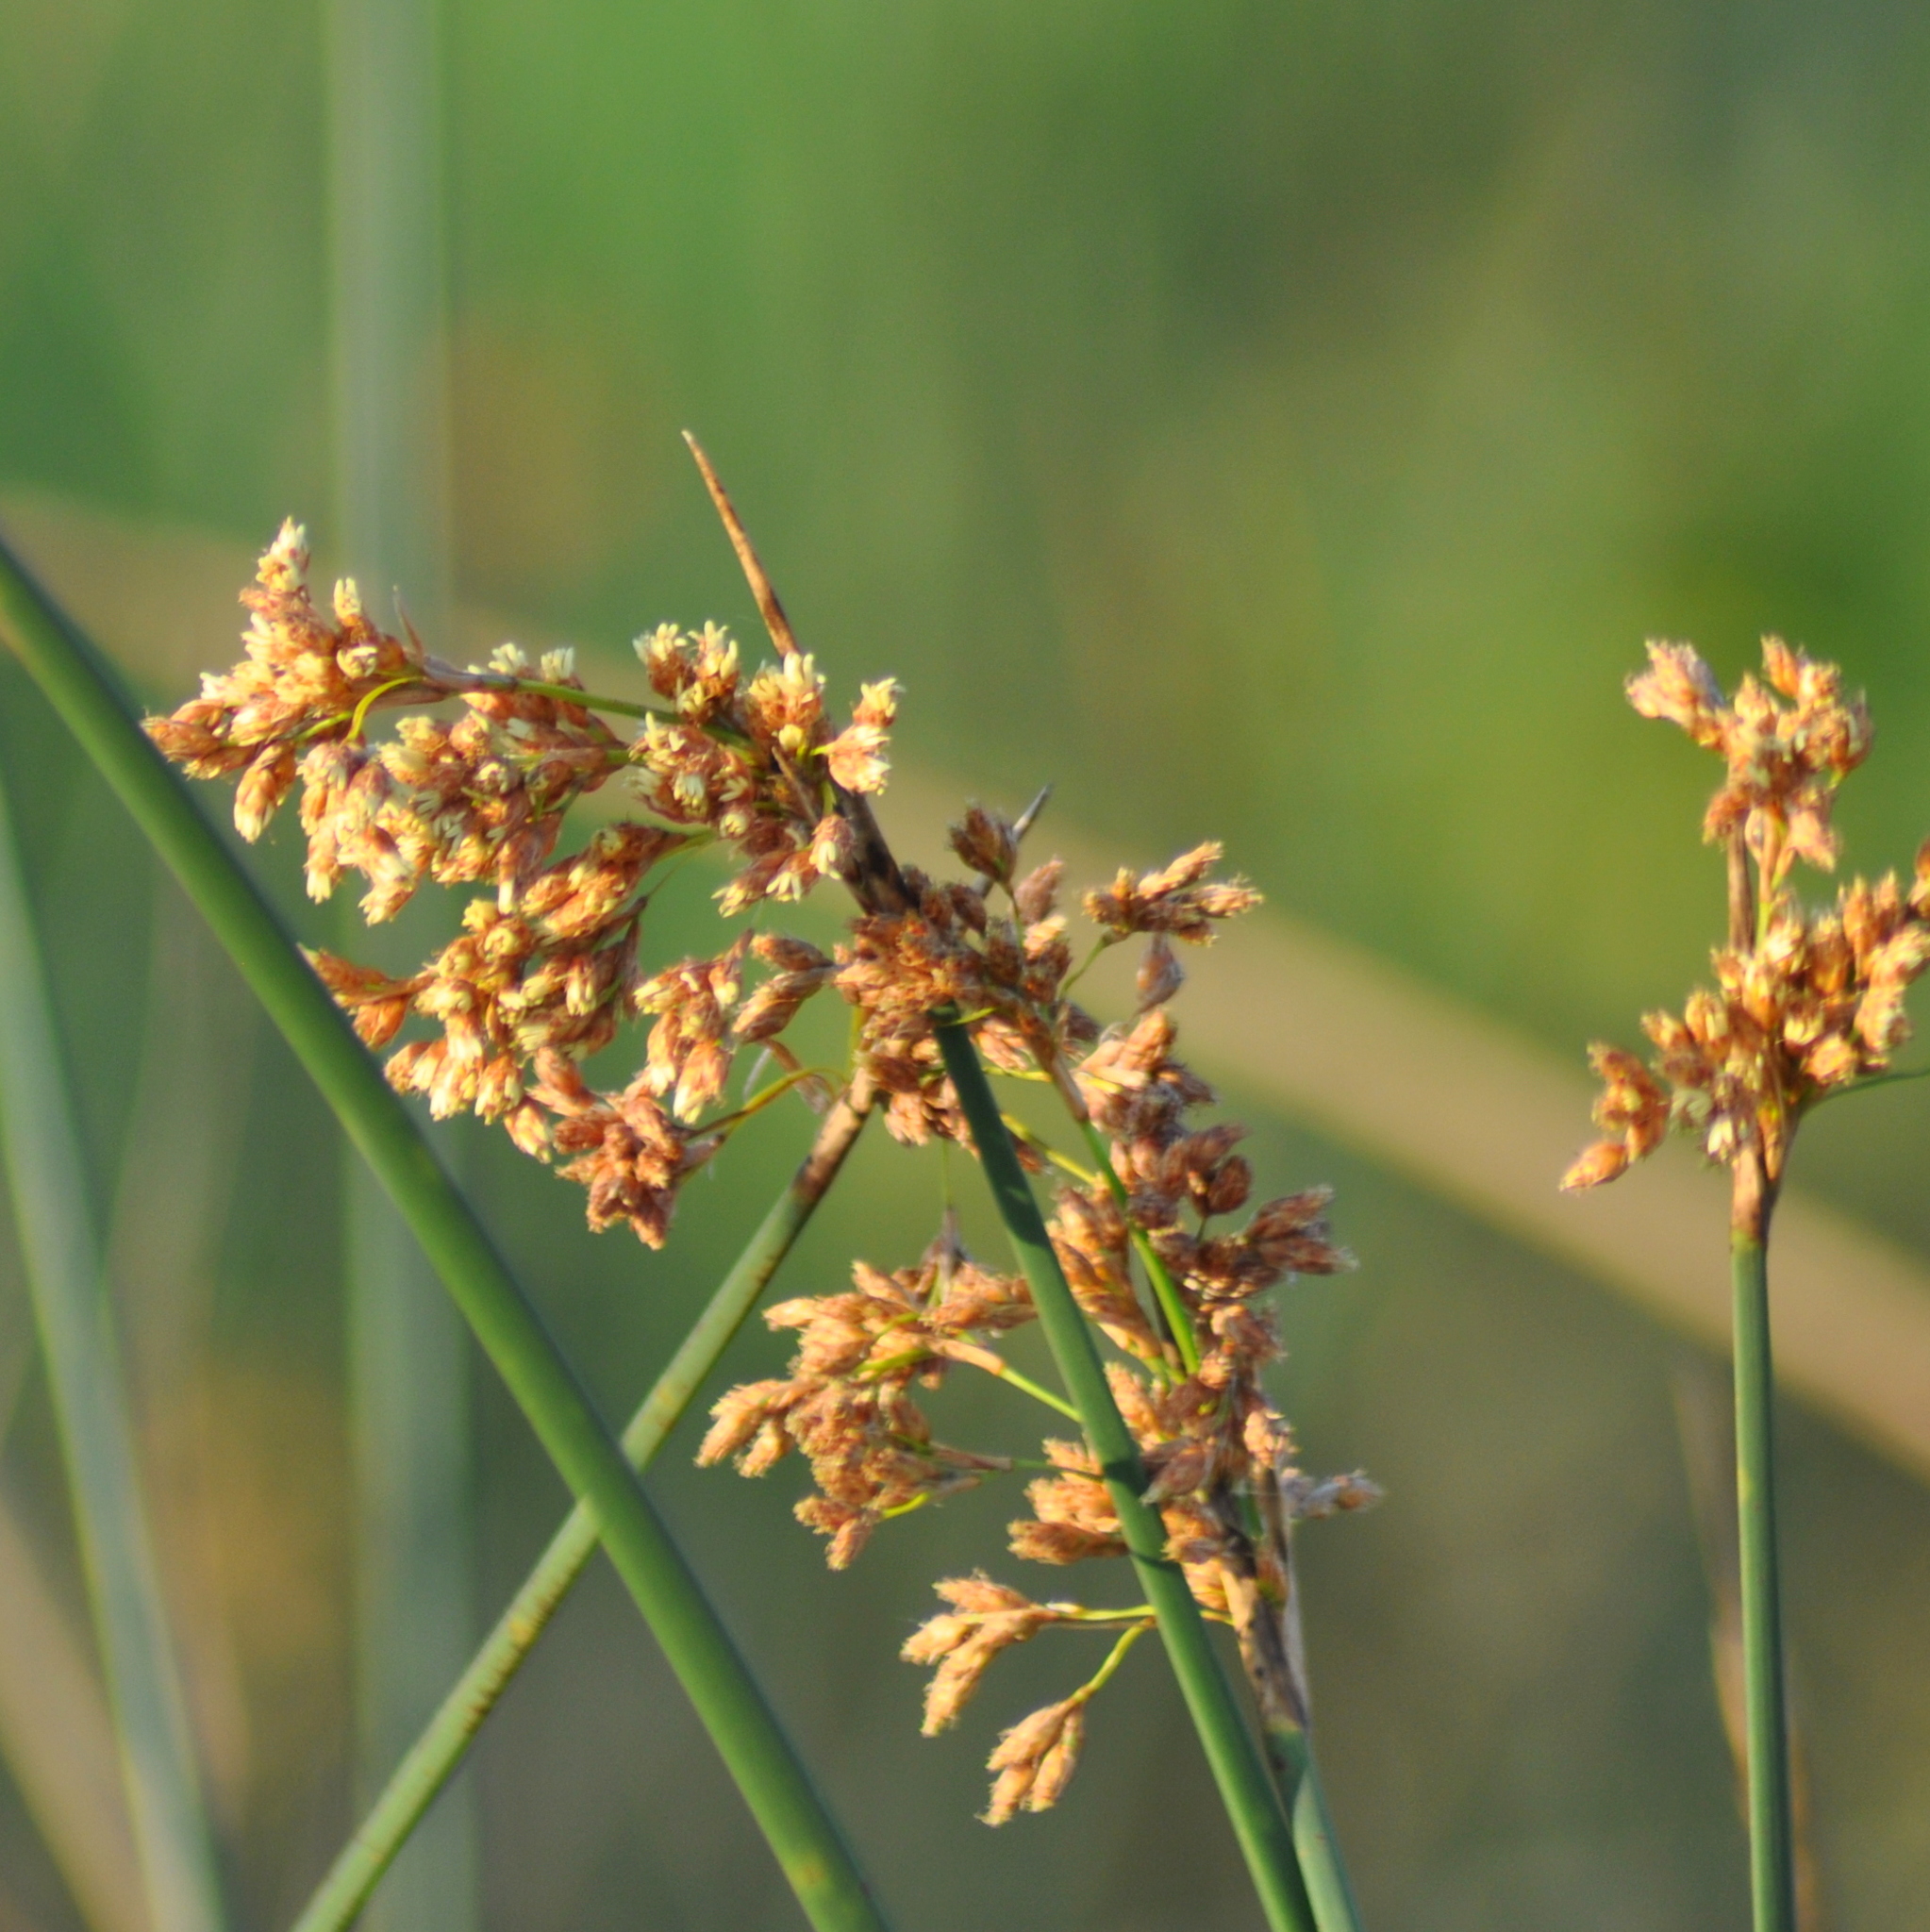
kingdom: Plantae
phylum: Tracheophyta
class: Liliopsida
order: Poales
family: Cyperaceae
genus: Schoenoplectus
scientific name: Schoenoplectus californicus
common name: California bulrush
